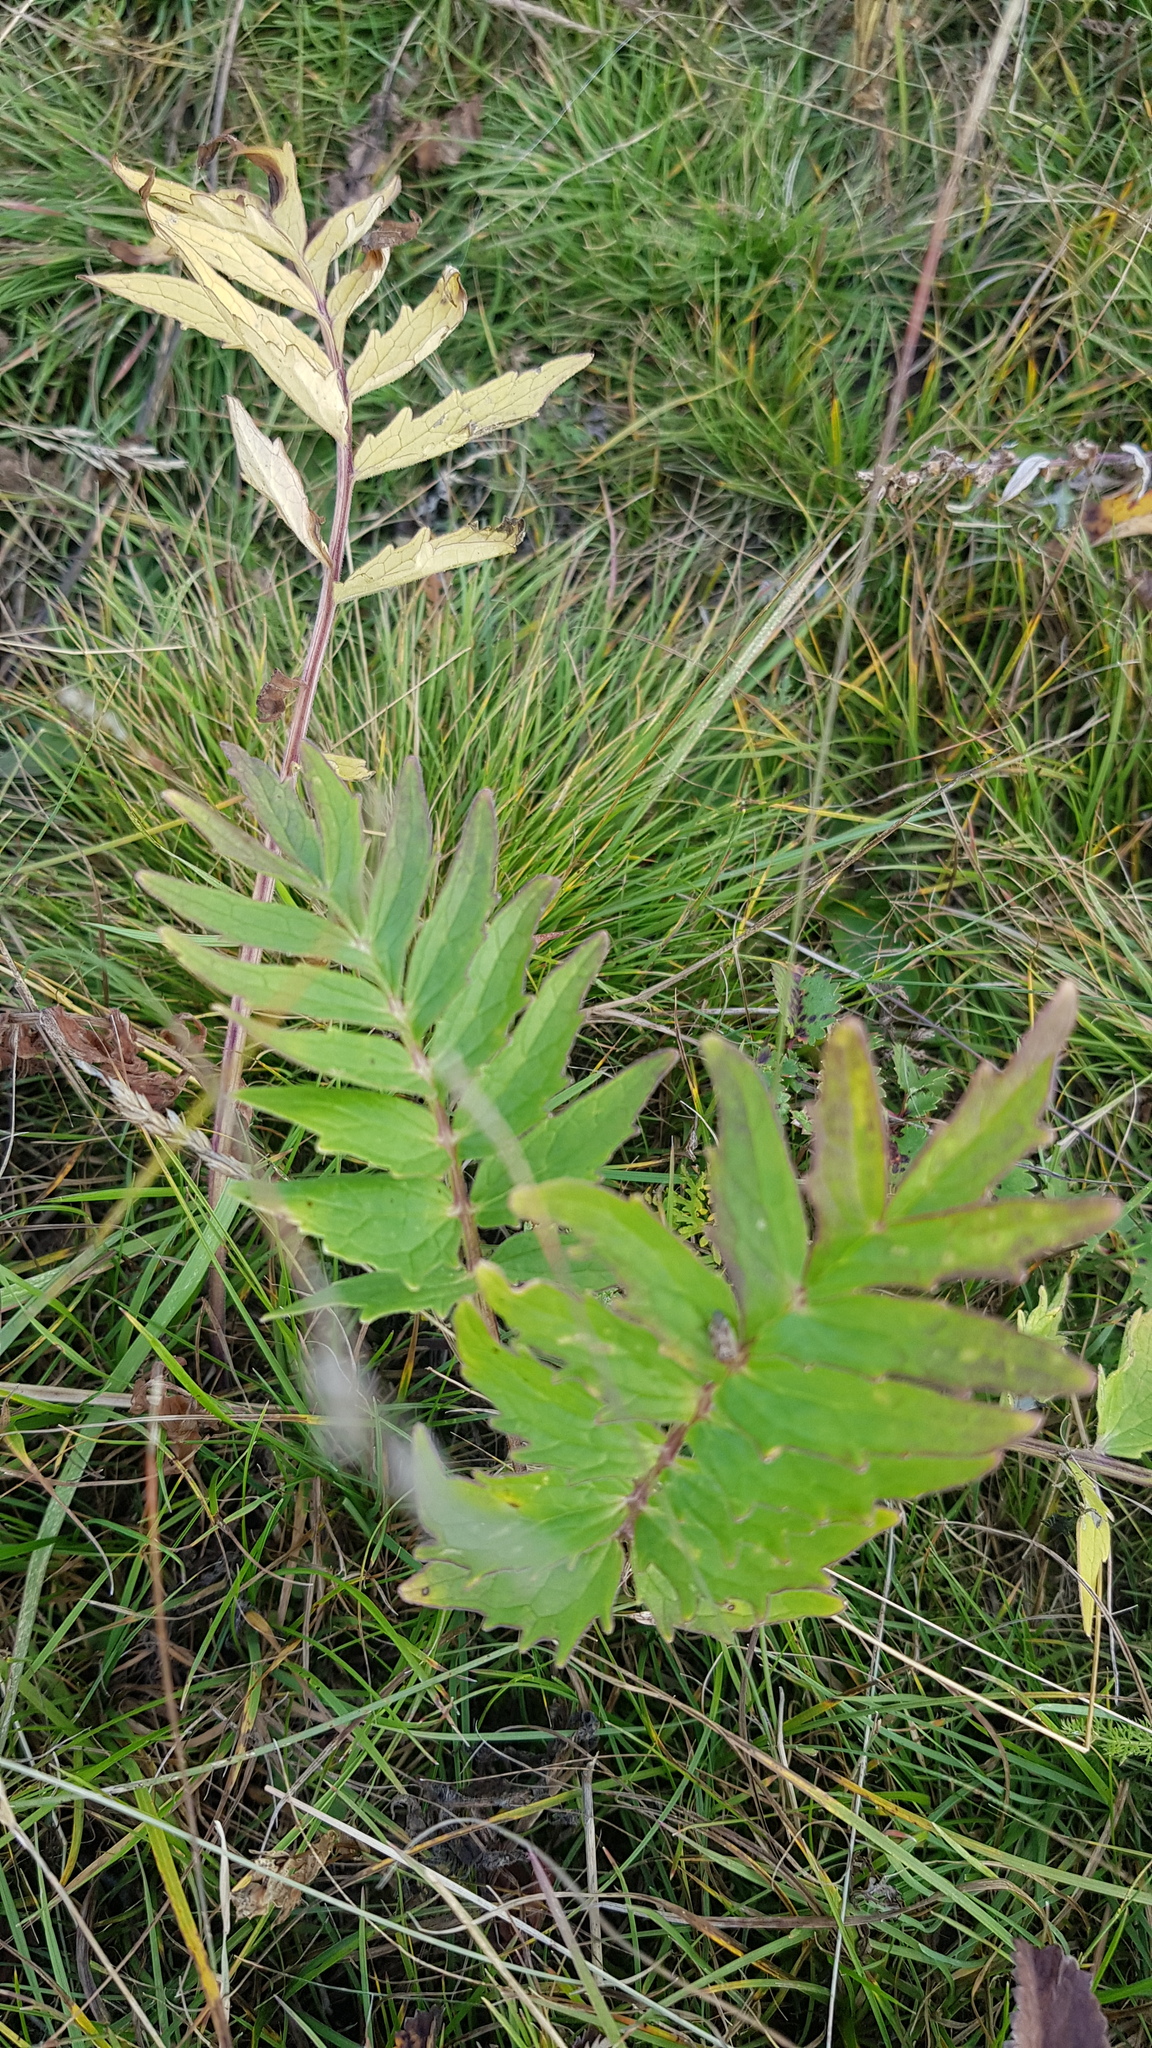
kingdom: Plantae
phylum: Tracheophyta
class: Magnoliopsida
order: Dipsacales
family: Caprifoliaceae
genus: Valeriana
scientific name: Valeriana officinalis
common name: Common valerian
